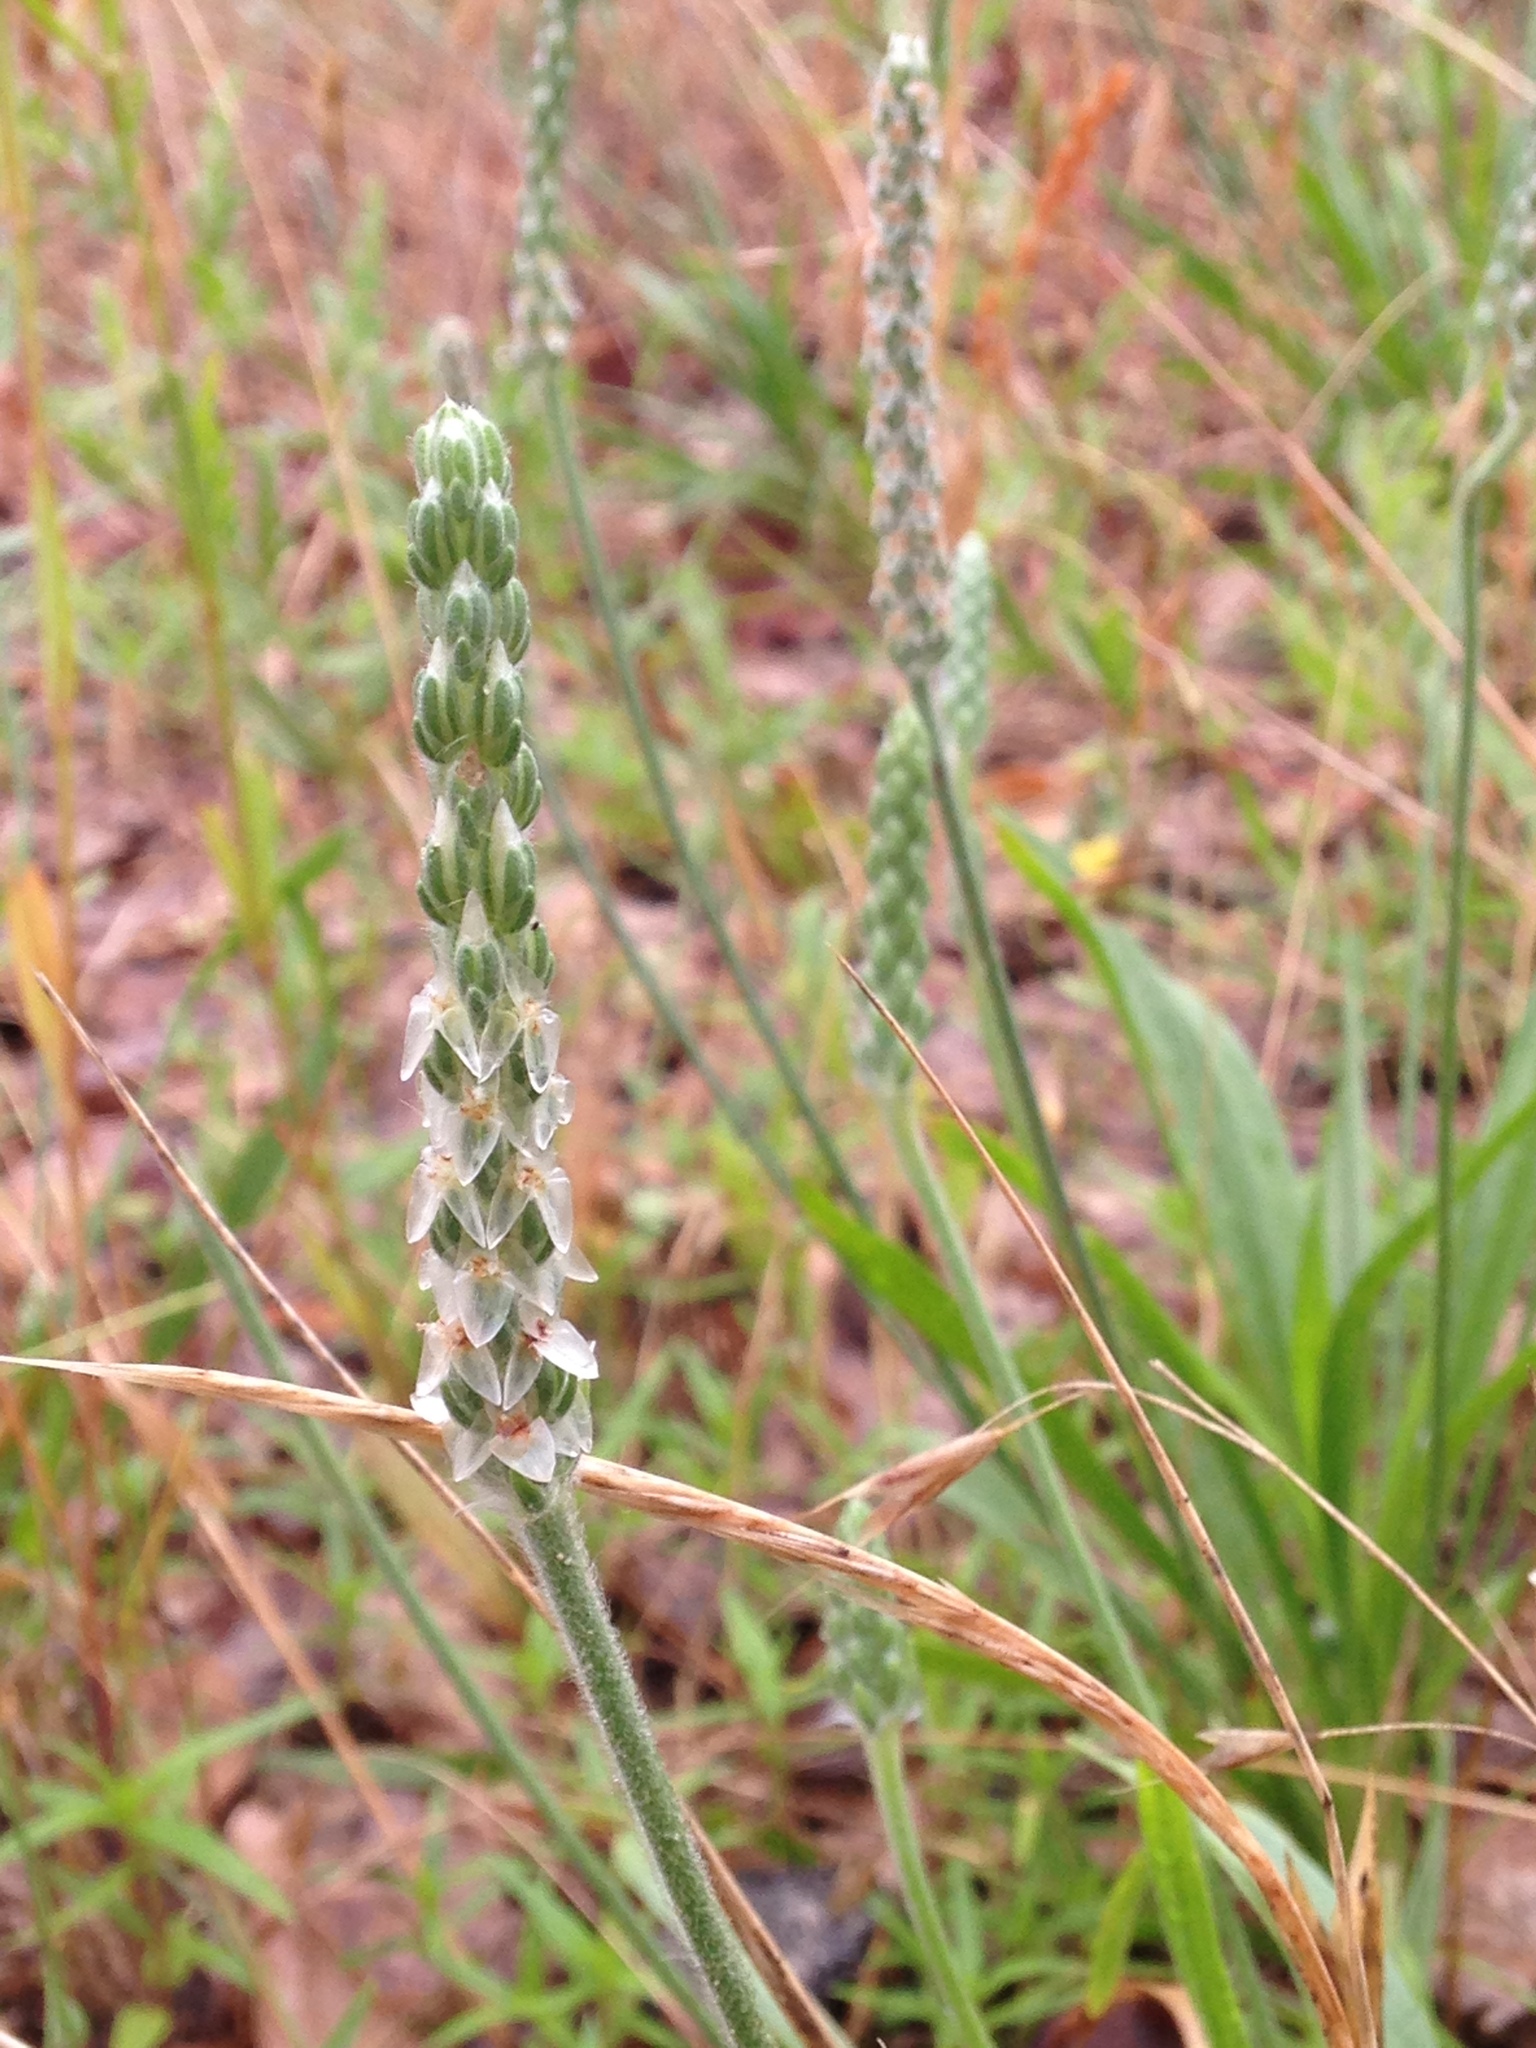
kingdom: Plantae
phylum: Tracheophyta
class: Magnoliopsida
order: Lamiales
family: Plantaginaceae
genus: Plantago
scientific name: Plantago hookeriana
